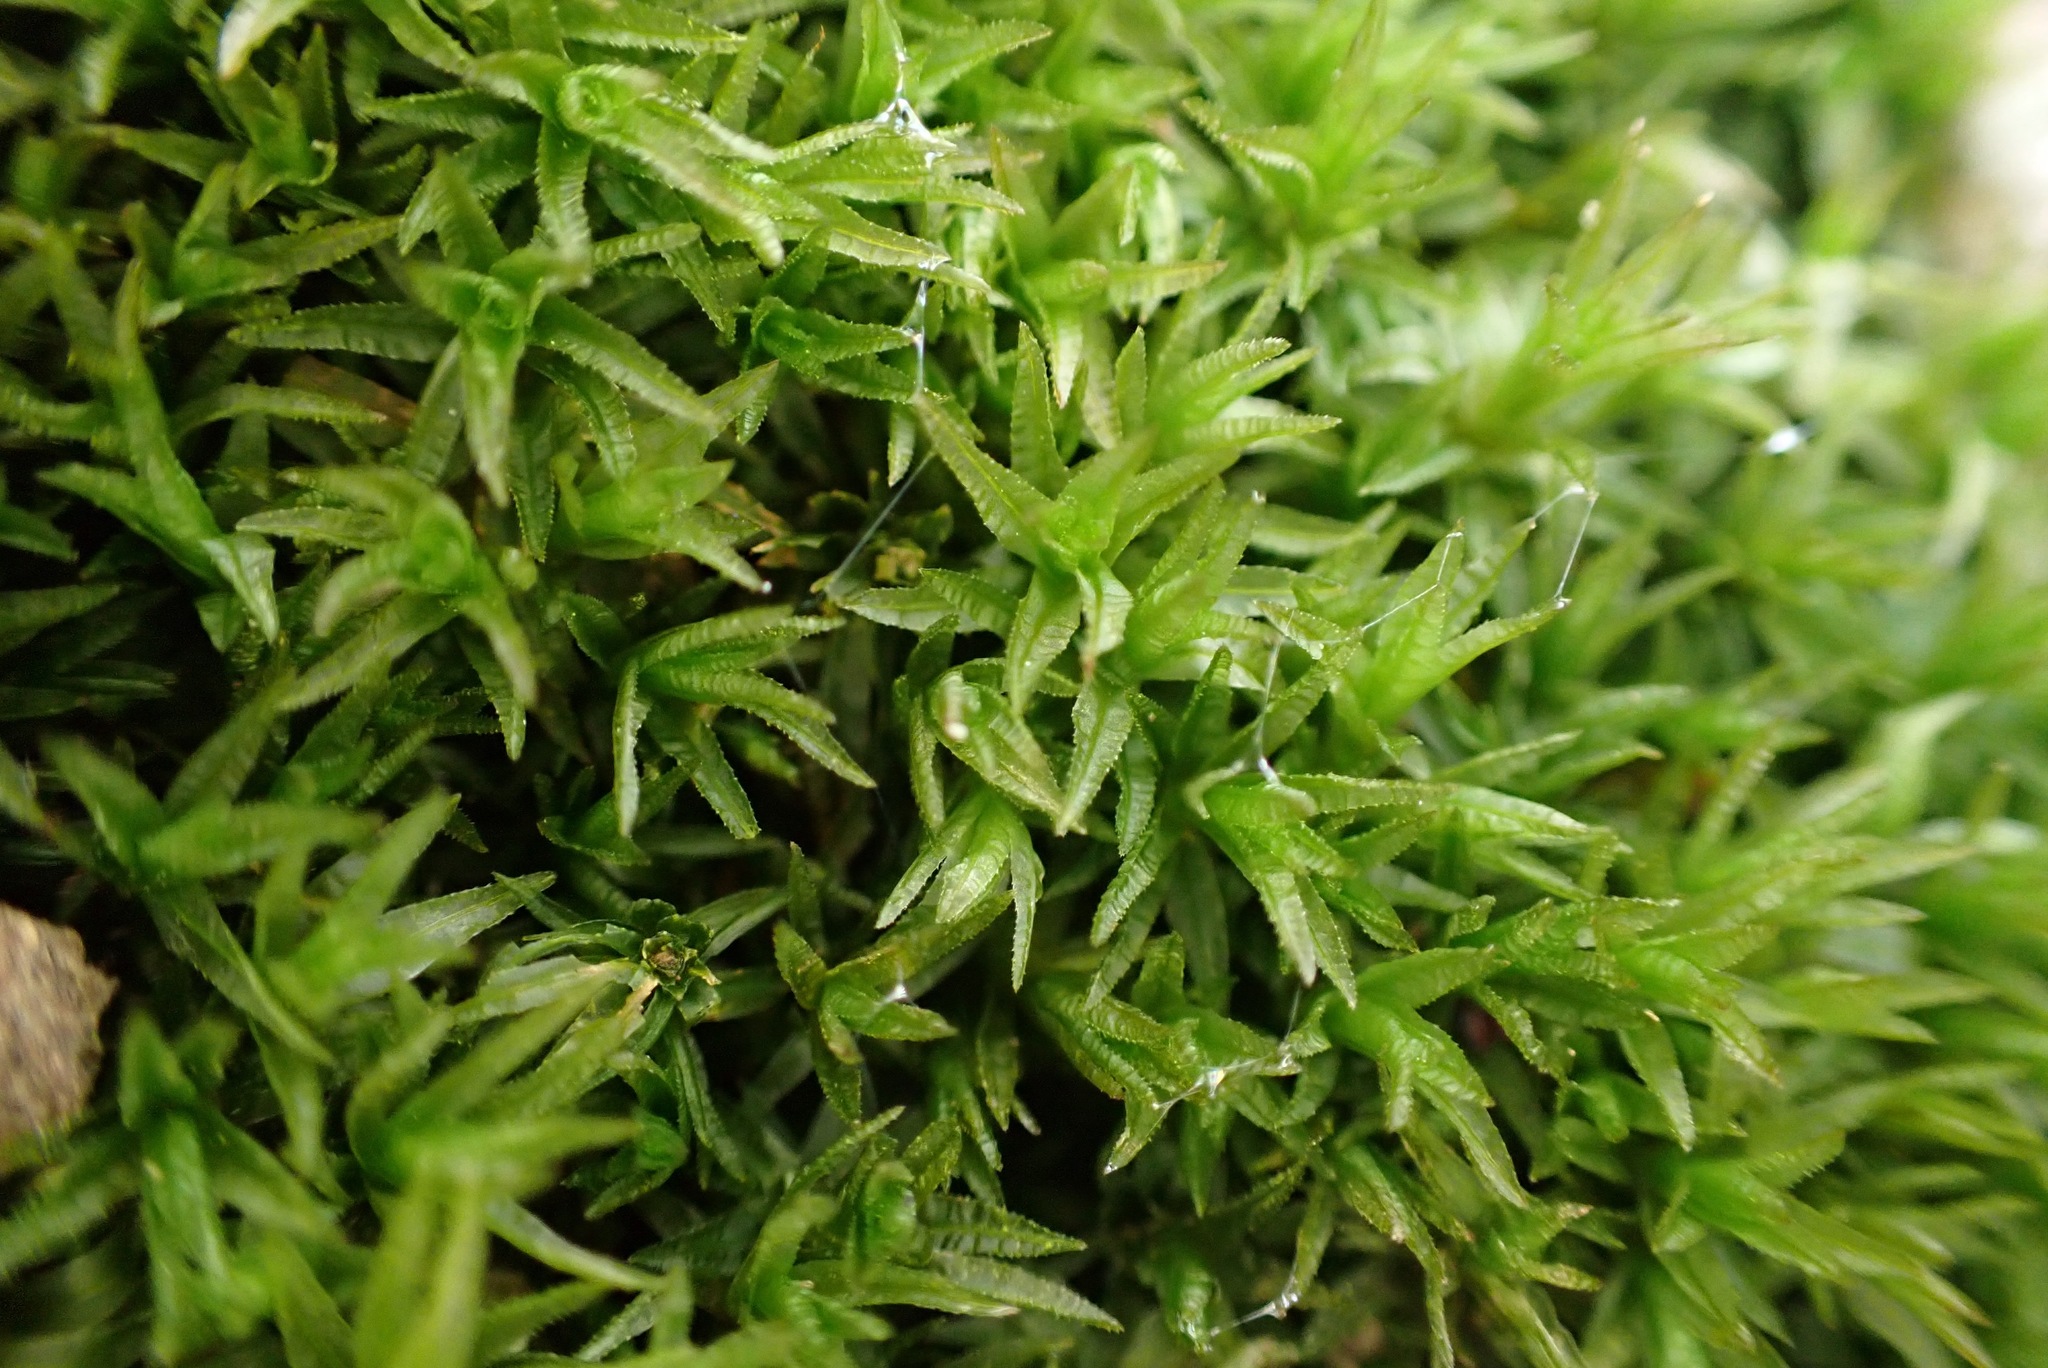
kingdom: Plantae
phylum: Bryophyta
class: Polytrichopsida
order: Polytrichales
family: Polytrichaceae
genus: Atrichum
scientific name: Atrichum undulatum
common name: Common smoothcap
